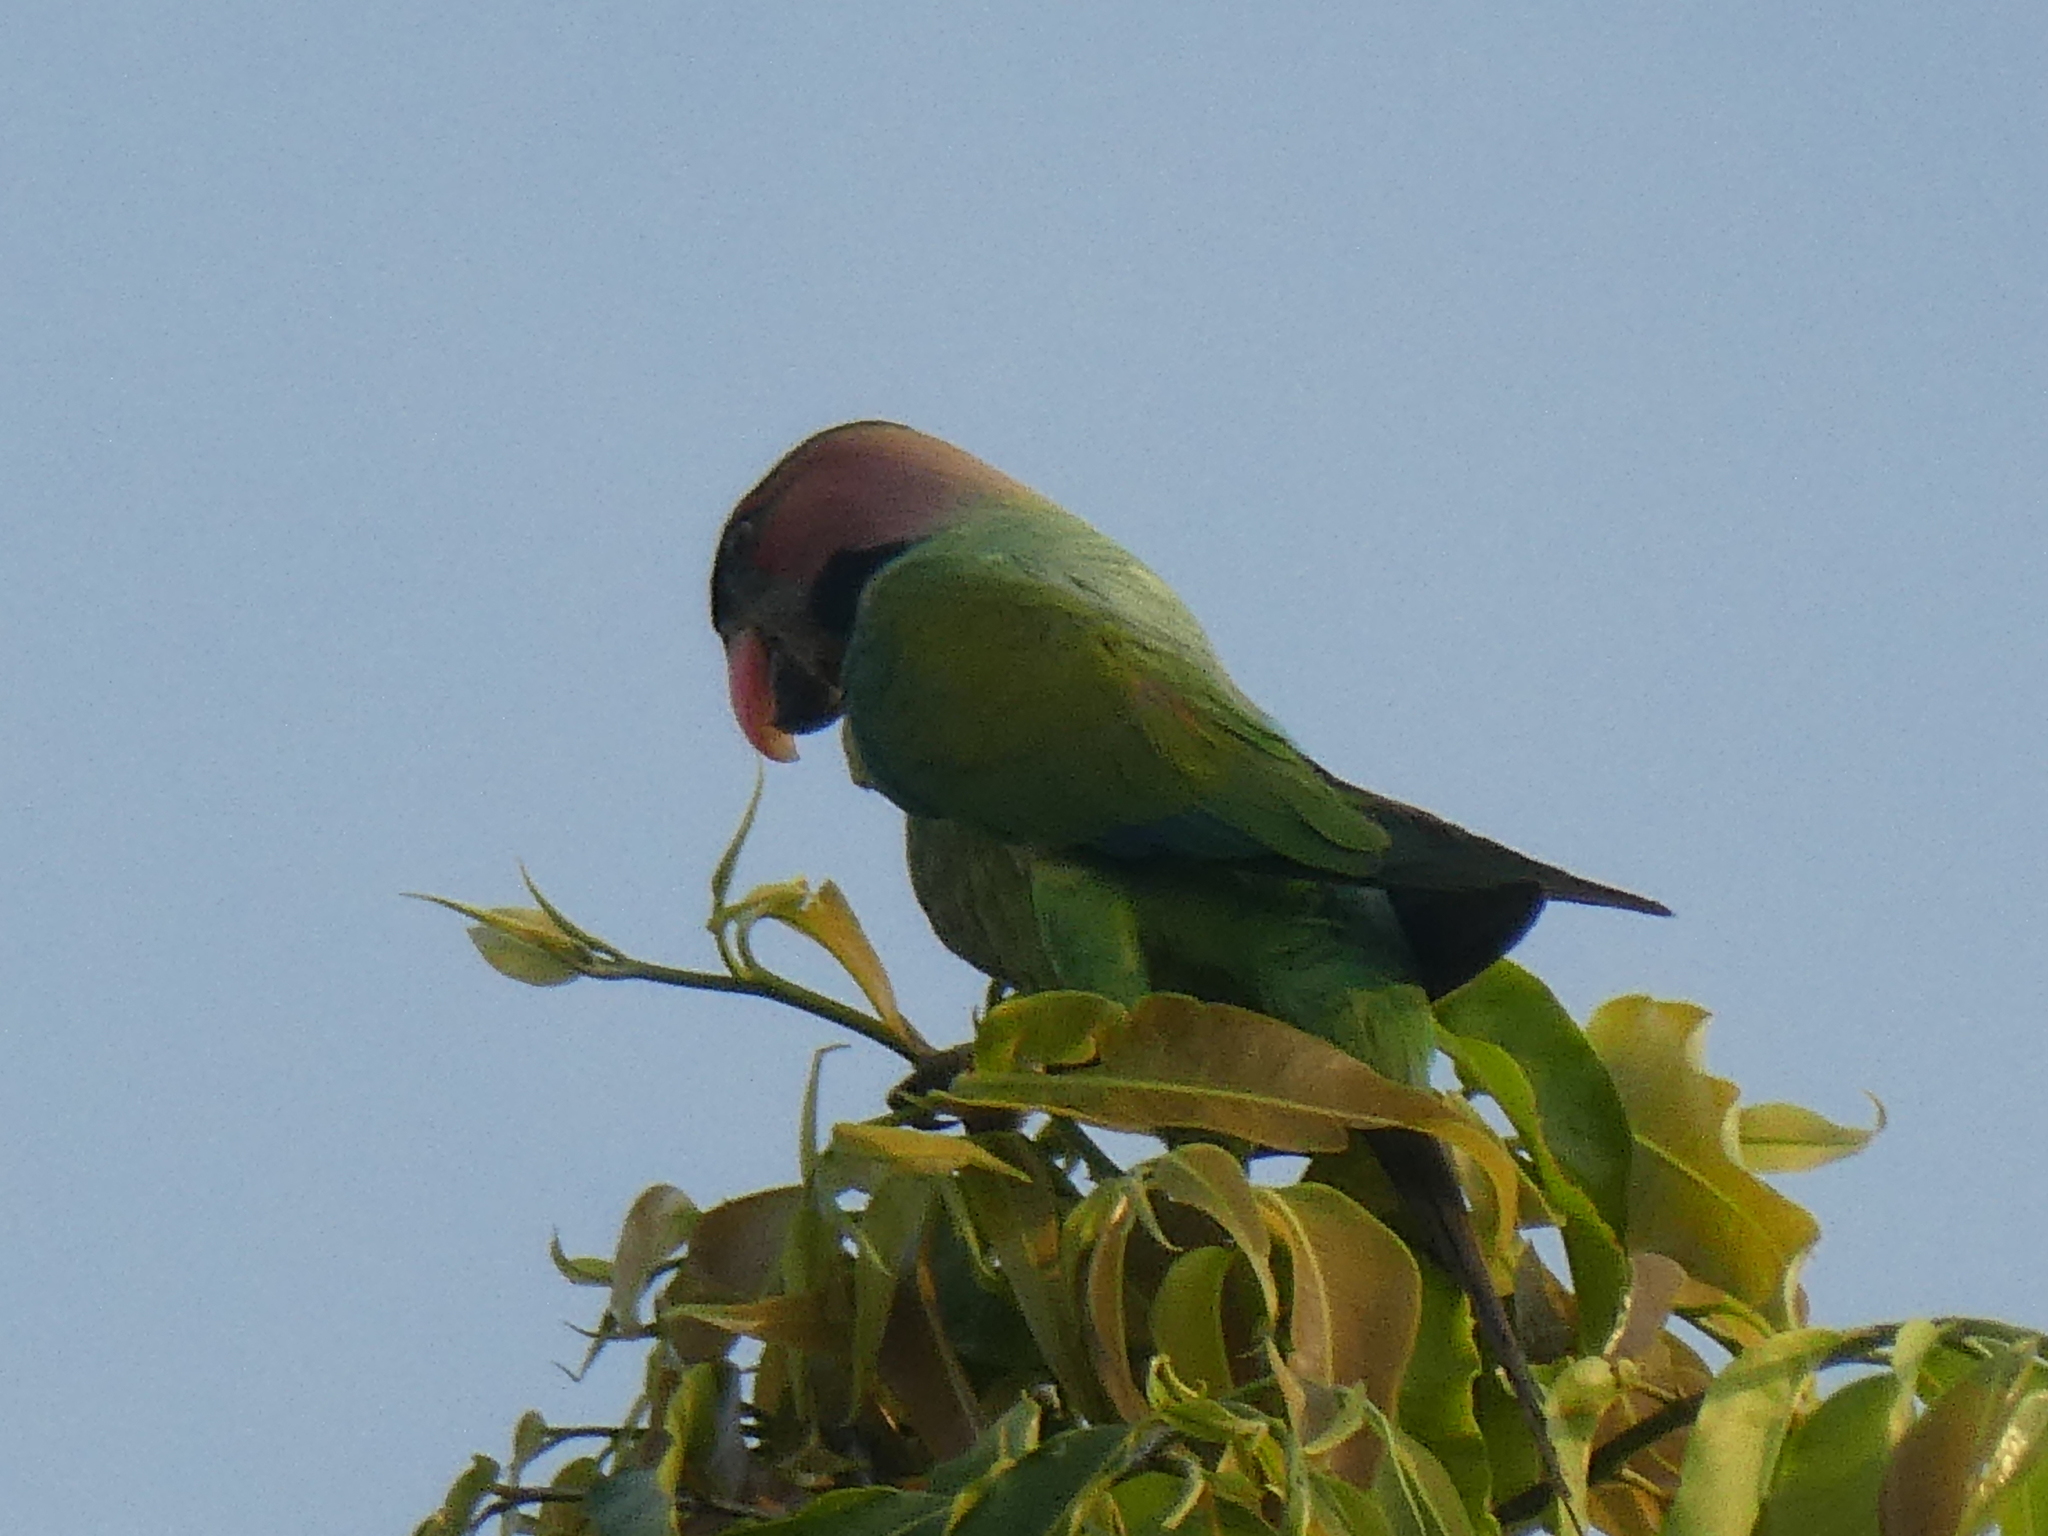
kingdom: Animalia
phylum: Chordata
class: Aves
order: Psittaciformes
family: Psittacidae
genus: Psittacula
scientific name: Psittacula longicauda
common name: Long-tailed parakeet
